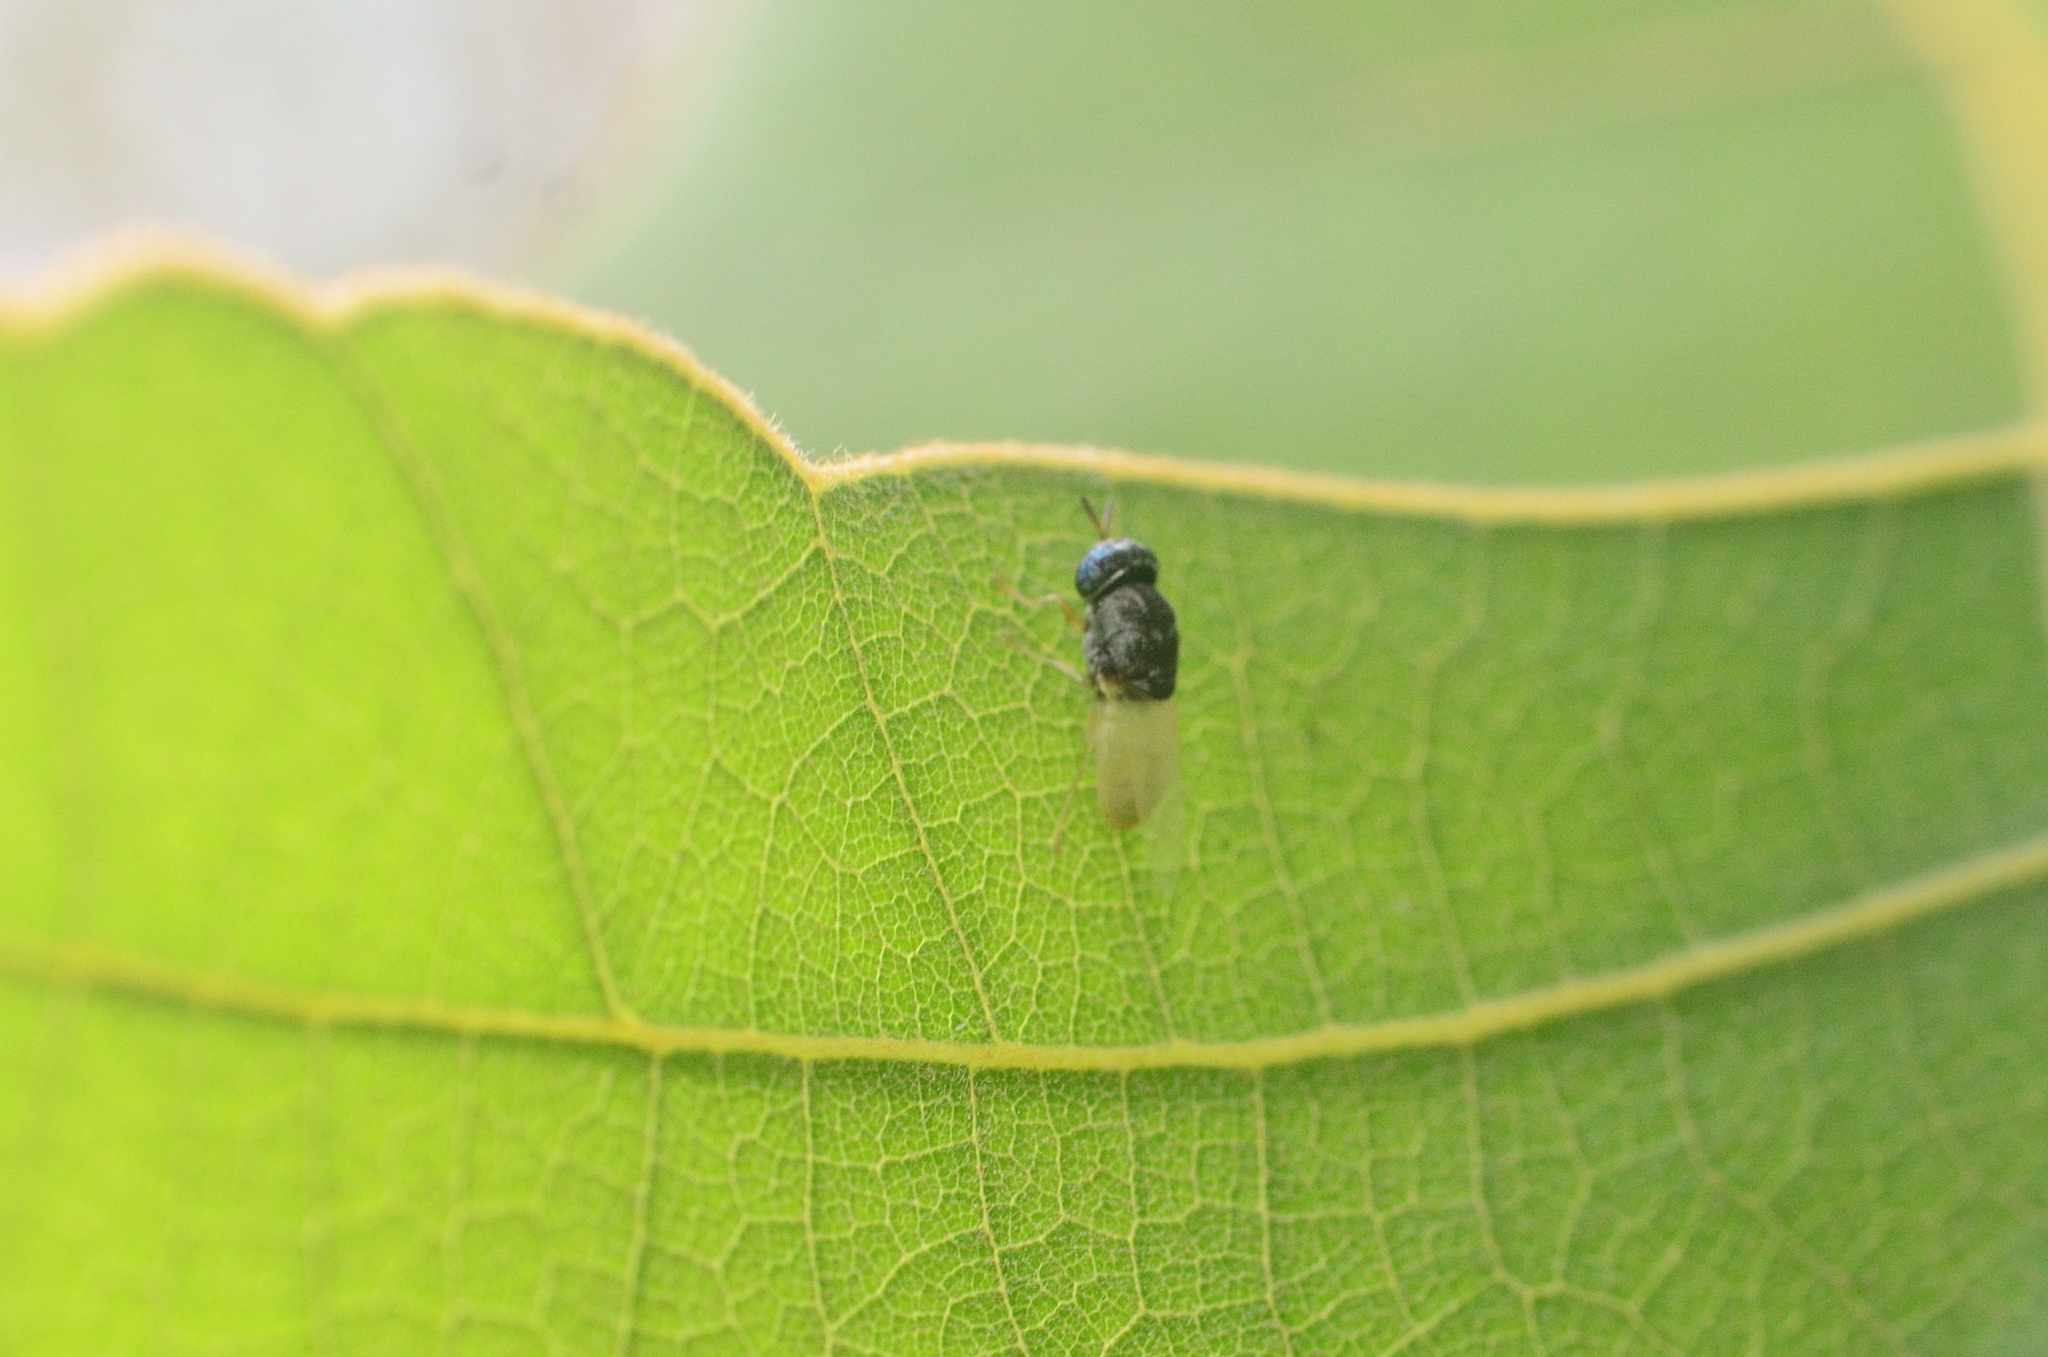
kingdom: Animalia
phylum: Arthropoda
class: Insecta
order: Diptera
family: Stratiomyidae
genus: Oplodontha
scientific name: Oplodontha rubrithorax
